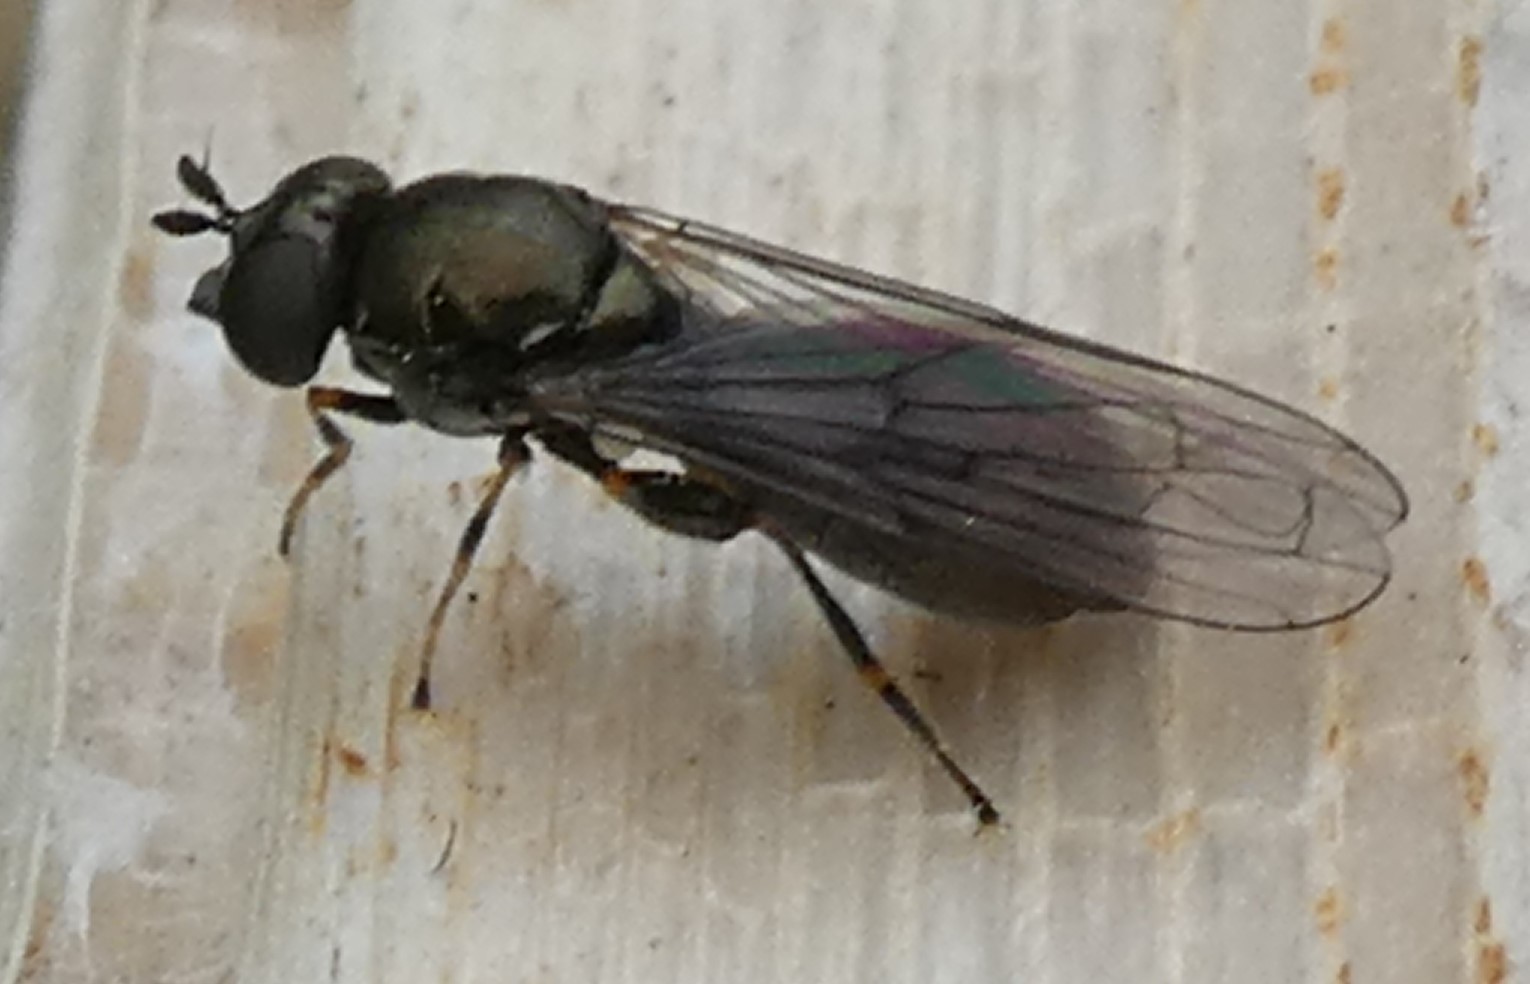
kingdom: Animalia
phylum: Arthropoda
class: Insecta
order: Diptera
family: Syrphidae
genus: Neoascia
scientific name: Neoascia
